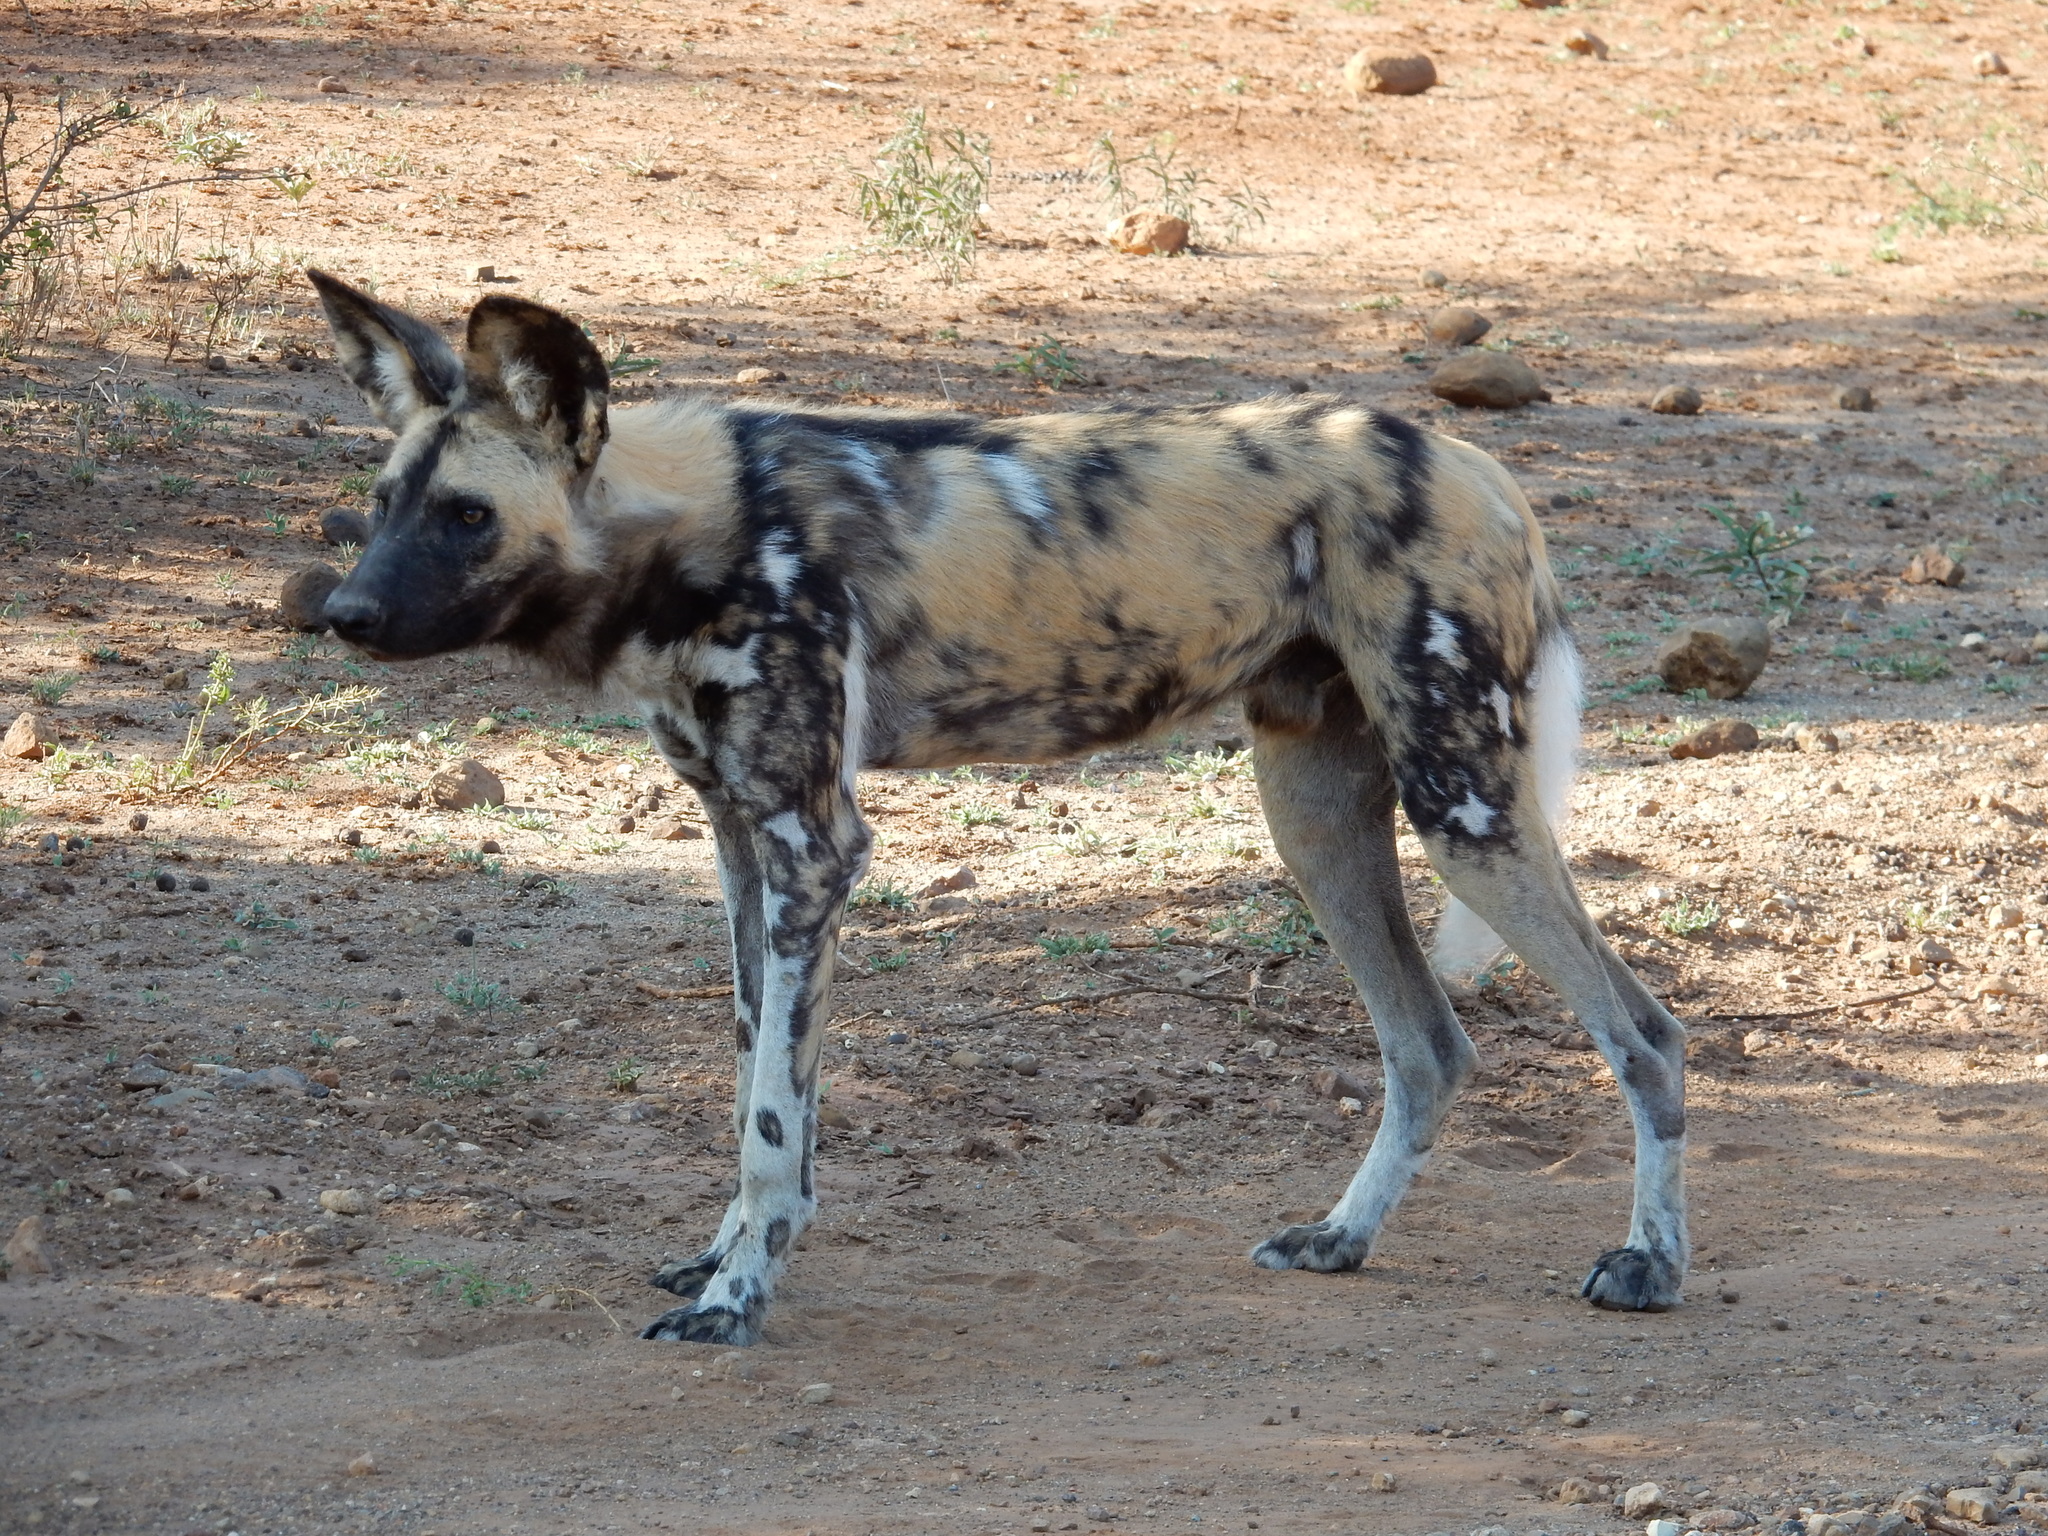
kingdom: Animalia
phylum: Chordata
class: Mammalia
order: Carnivora
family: Canidae
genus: Lycaon
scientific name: Lycaon pictus
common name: African wild dog
